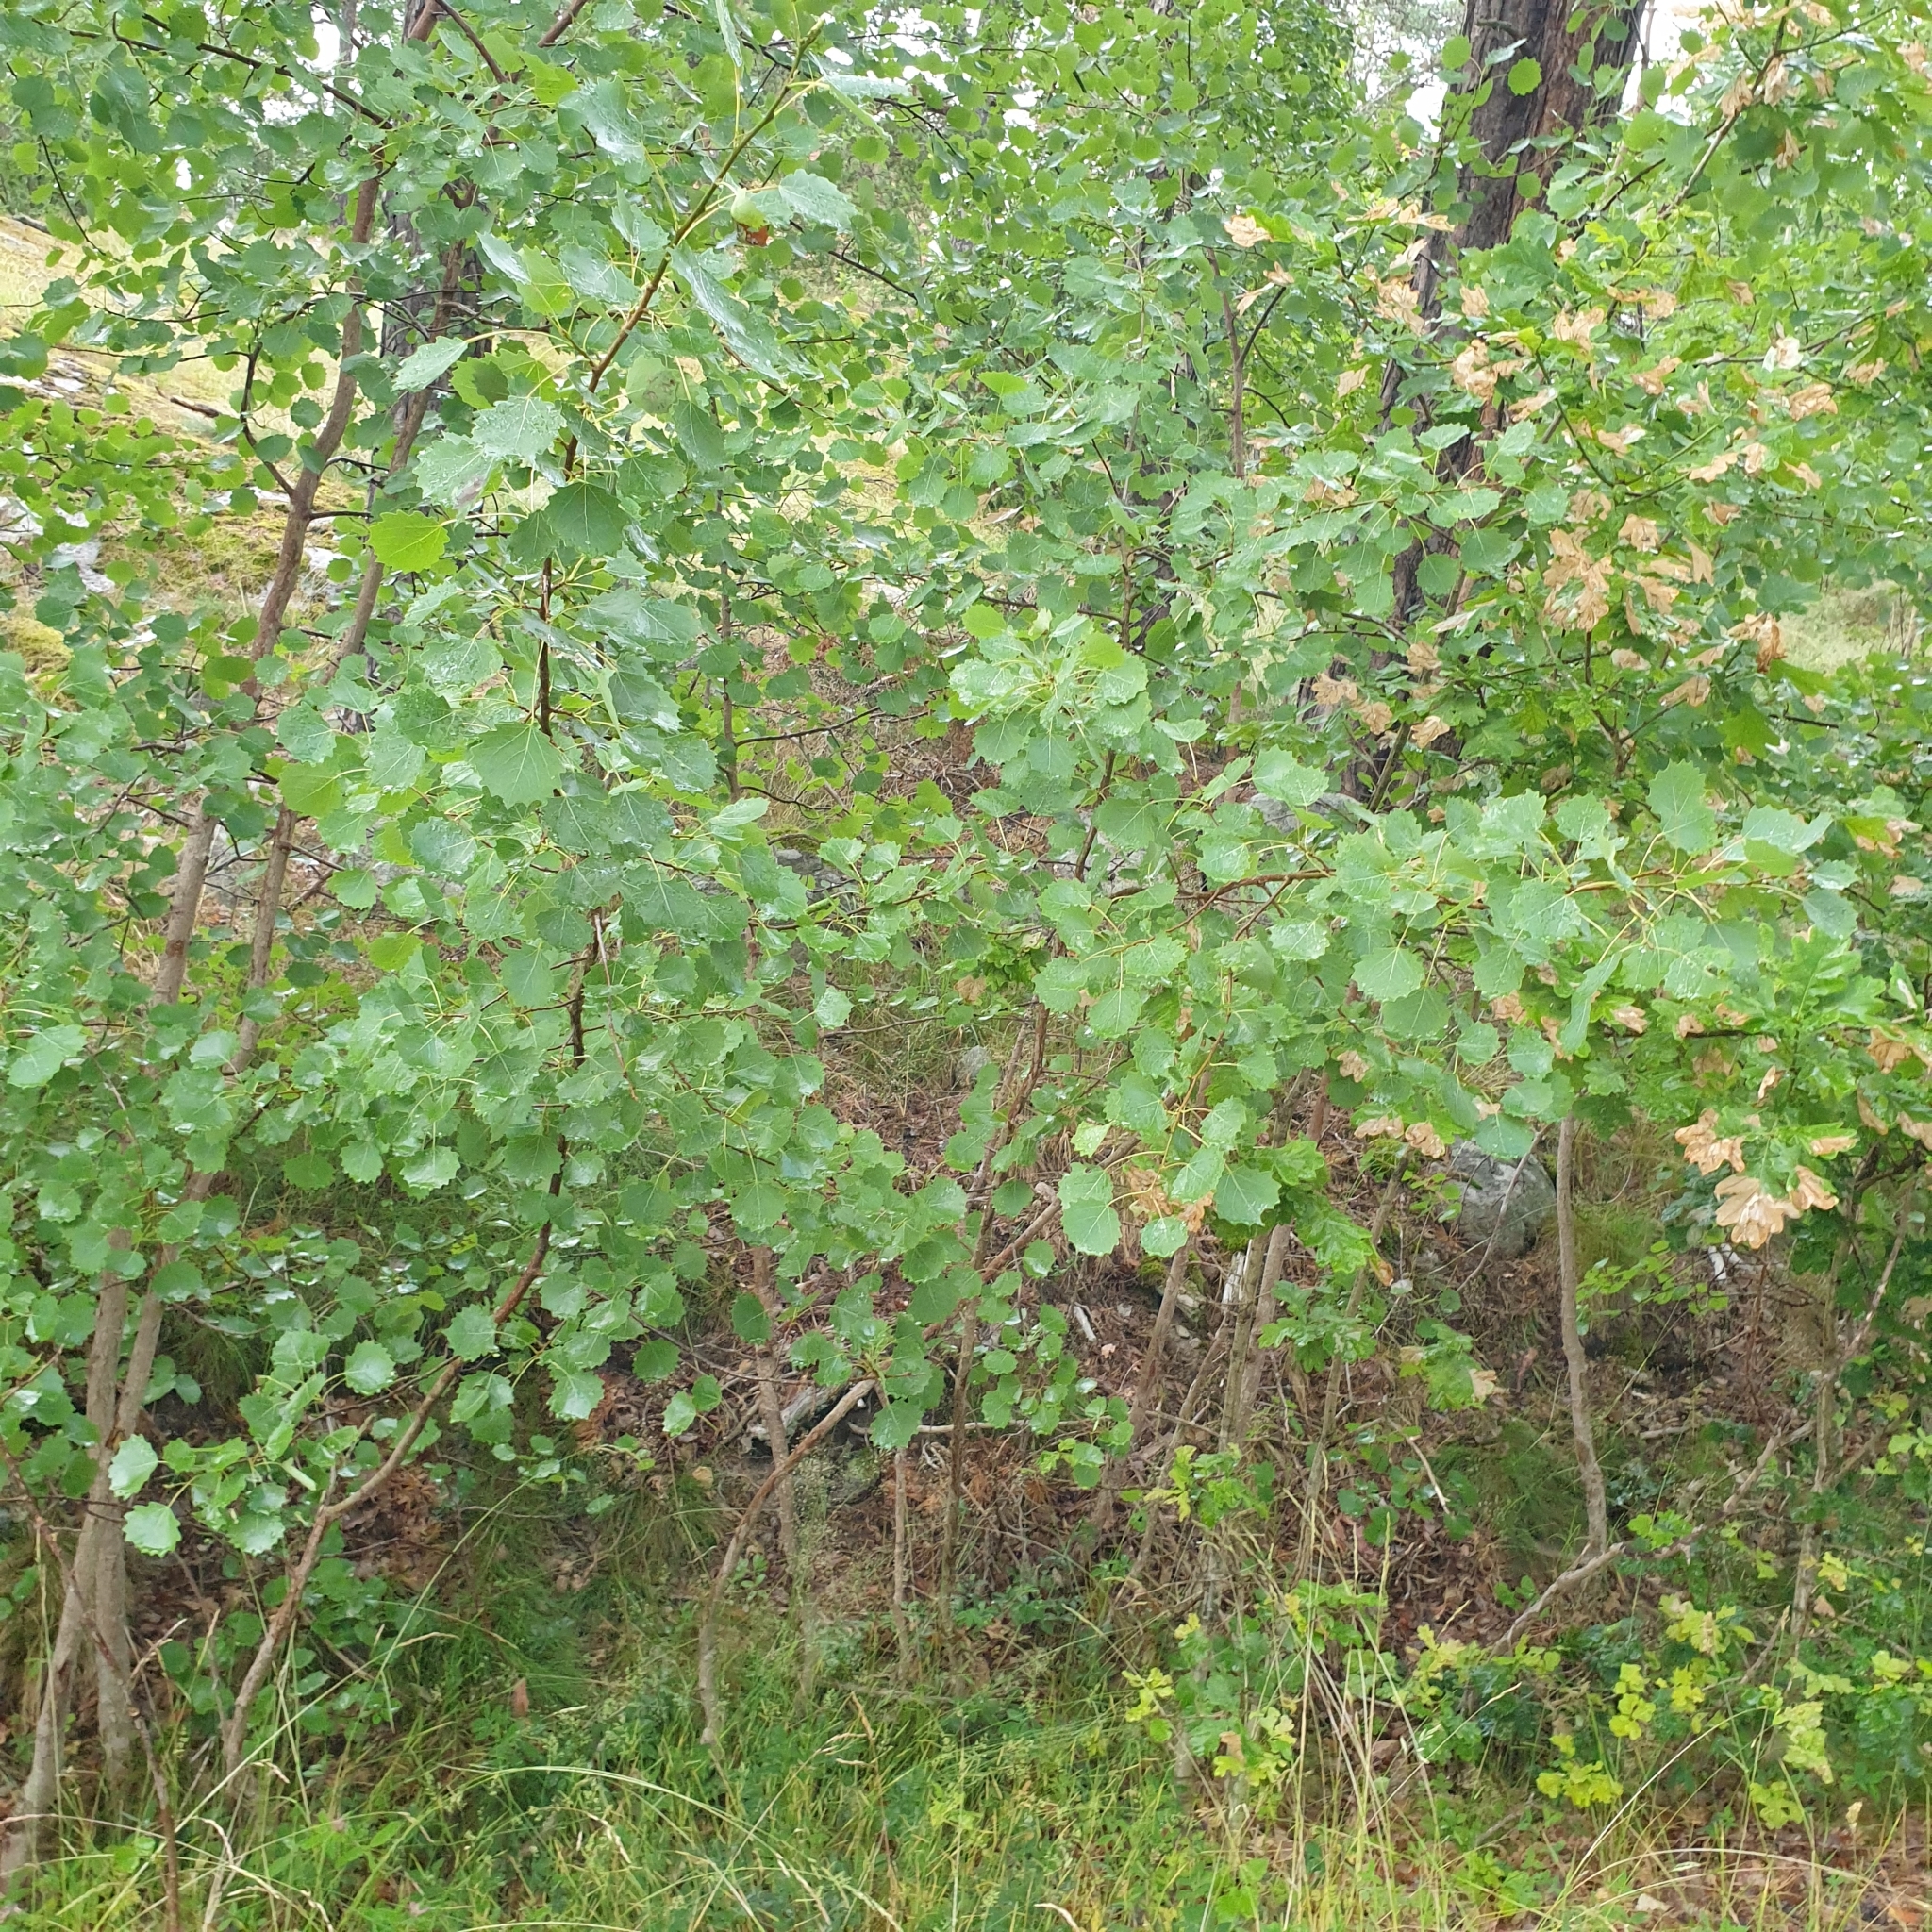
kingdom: Plantae
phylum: Tracheophyta
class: Magnoliopsida
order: Malpighiales
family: Salicaceae
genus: Populus
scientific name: Populus tremula
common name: European aspen
